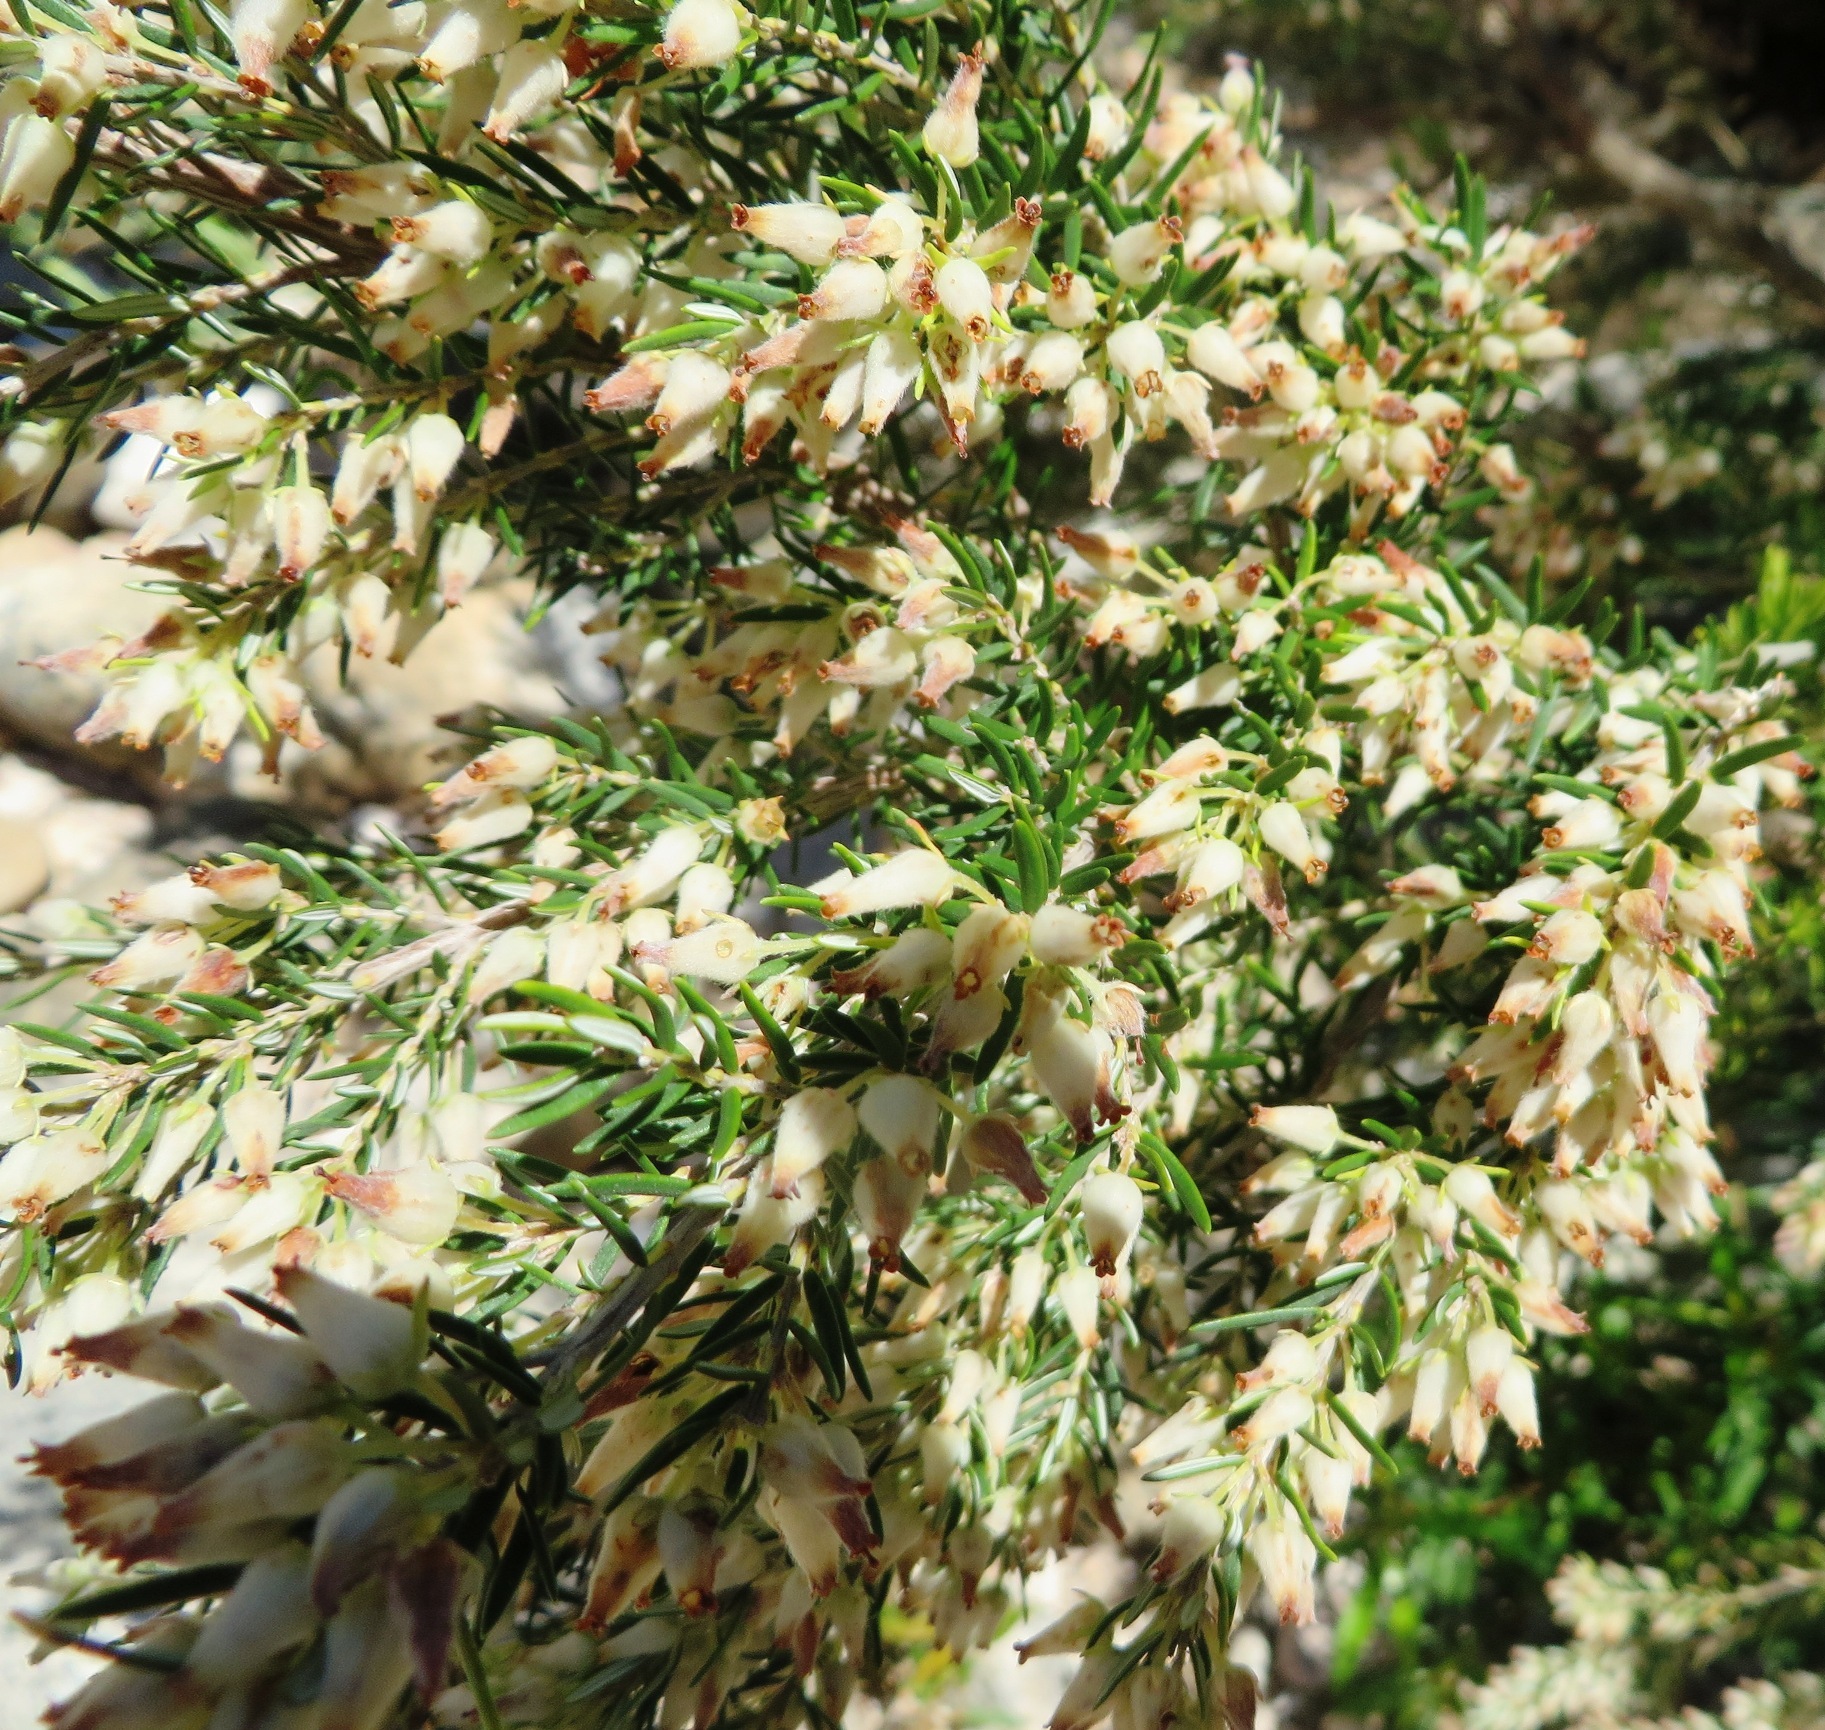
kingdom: Plantae
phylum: Tracheophyta
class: Magnoliopsida
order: Ericales
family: Ericaceae
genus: Erica
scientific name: Erica caffra
